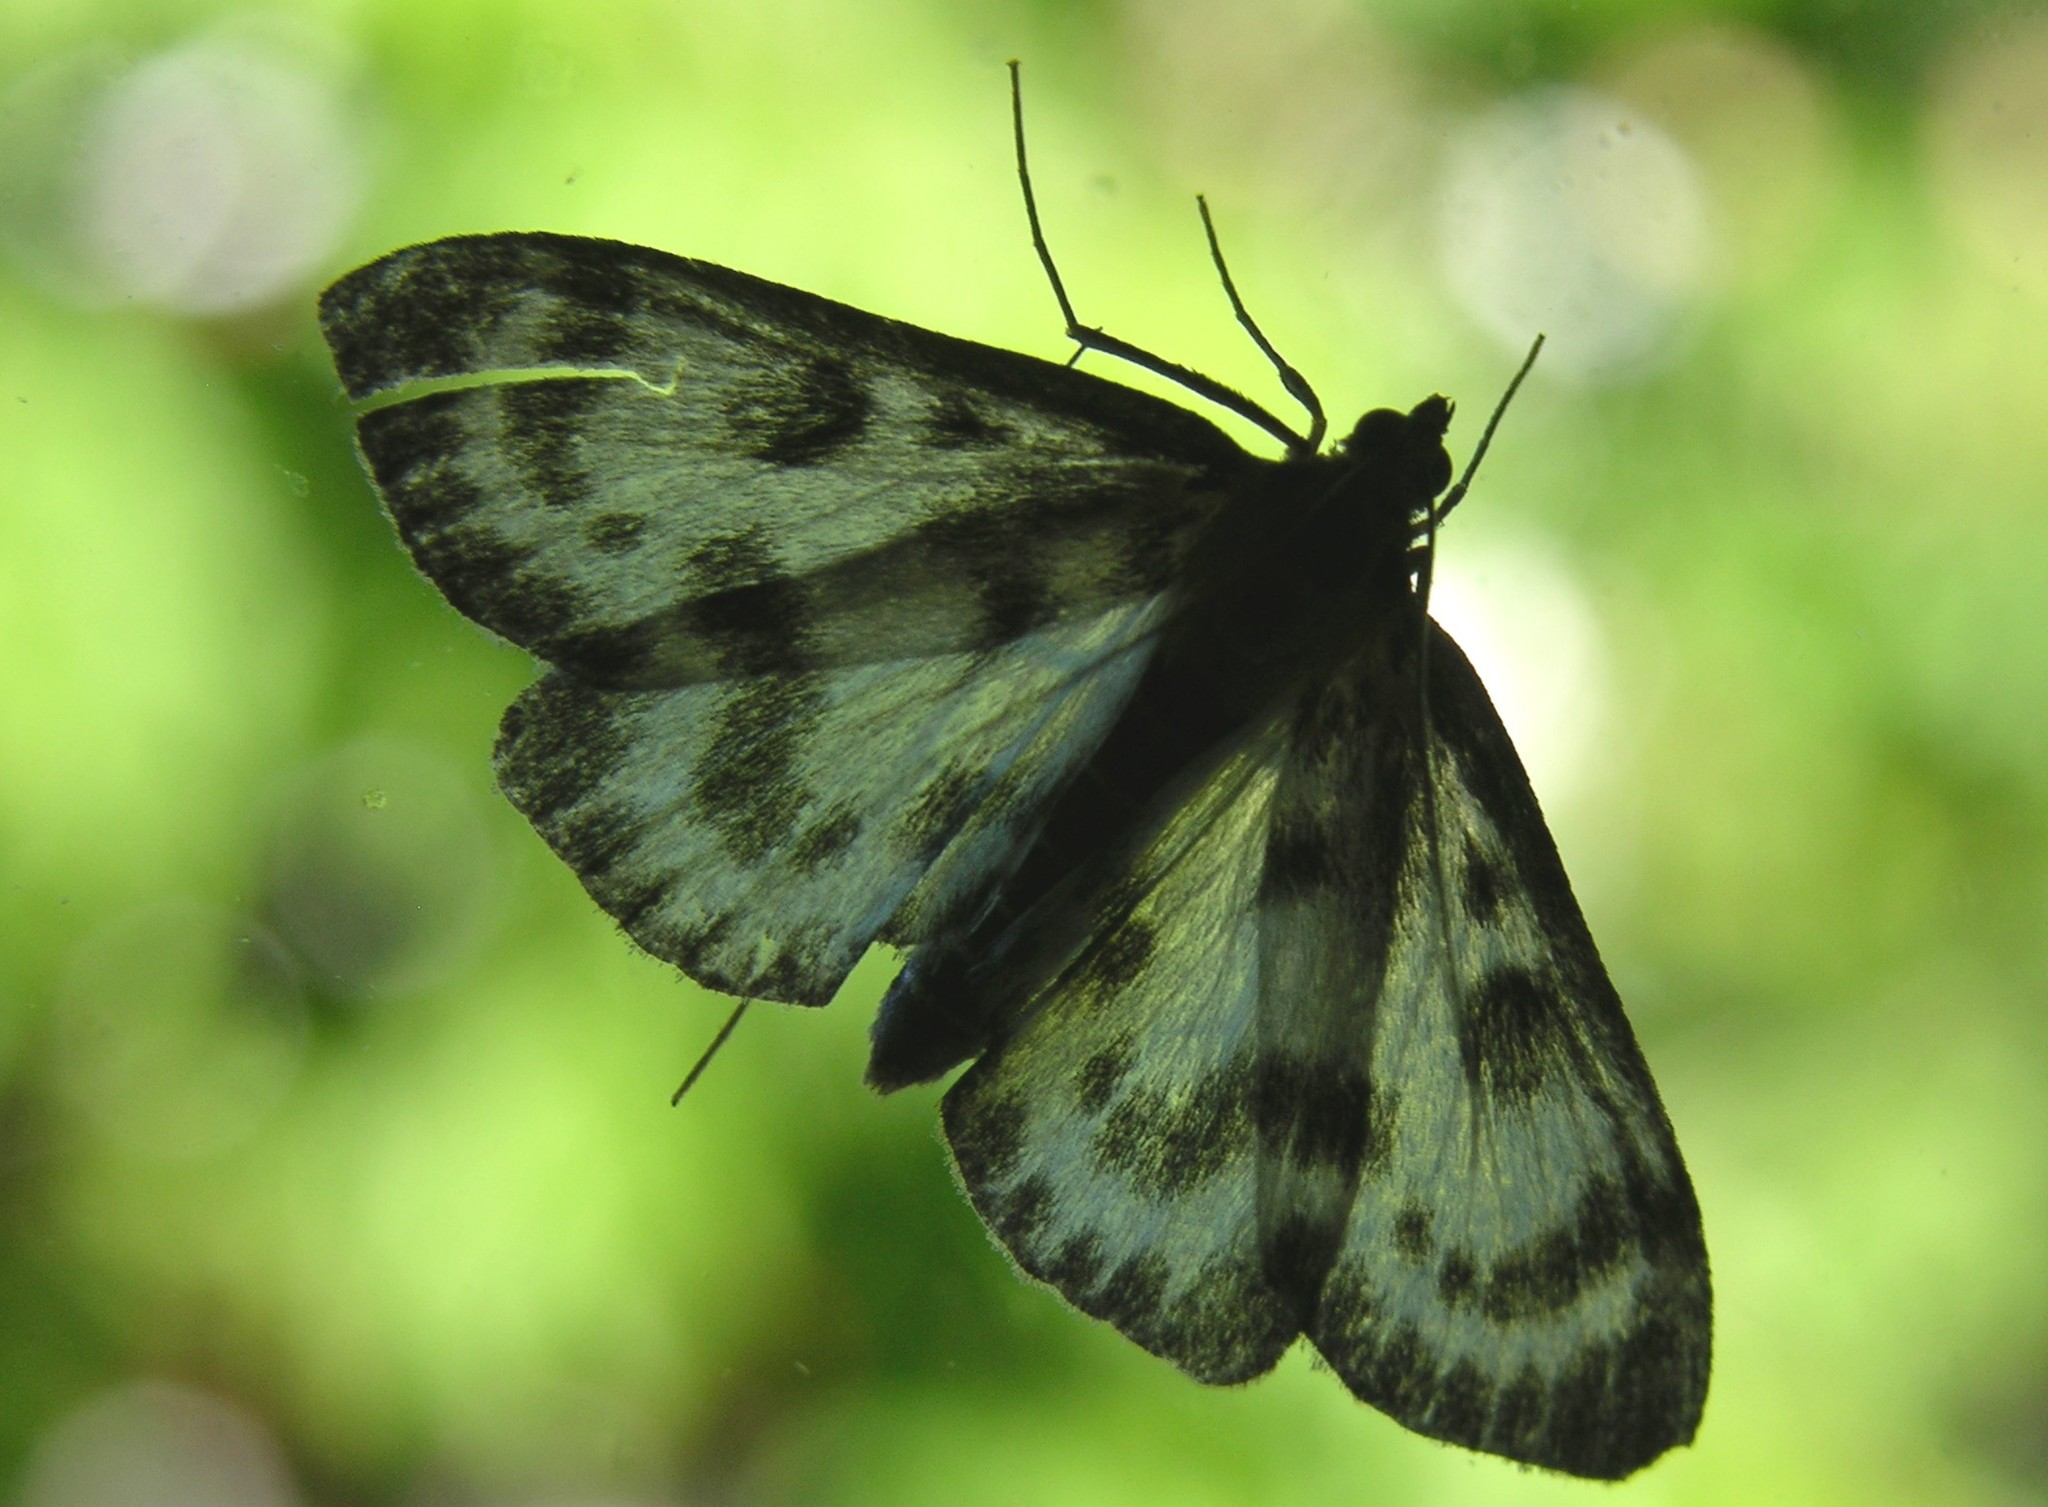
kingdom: Animalia
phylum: Arthropoda
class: Insecta
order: Lepidoptera
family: Crambidae
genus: Anania
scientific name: Anania hortulata
